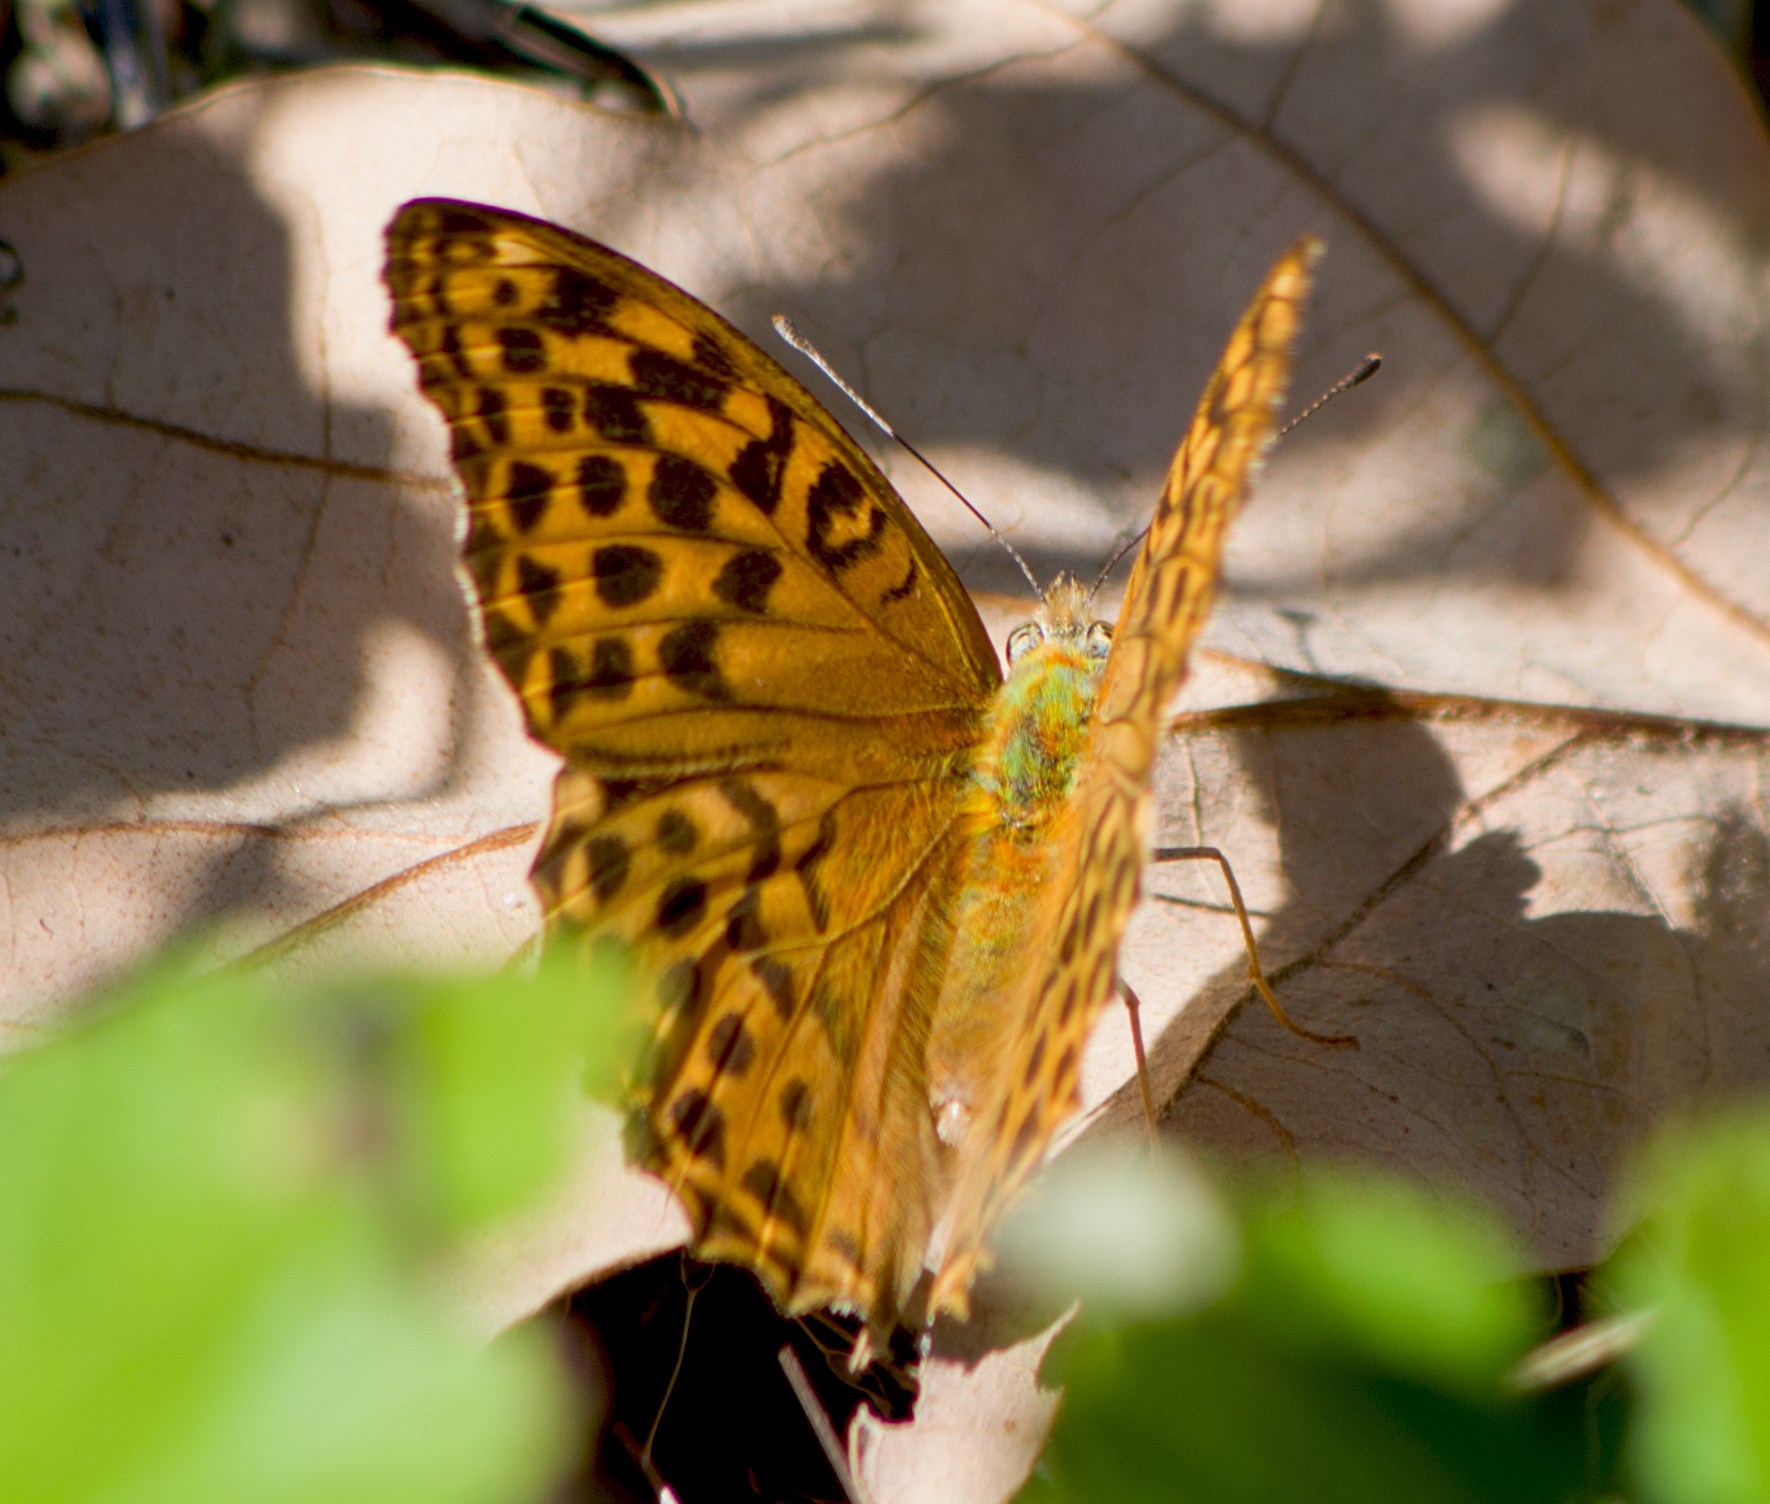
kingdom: Animalia
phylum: Arthropoda
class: Insecta
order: Lepidoptera
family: Nymphalidae
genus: Argynnis
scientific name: Argynnis paphia
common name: Silver-washed fritillary
